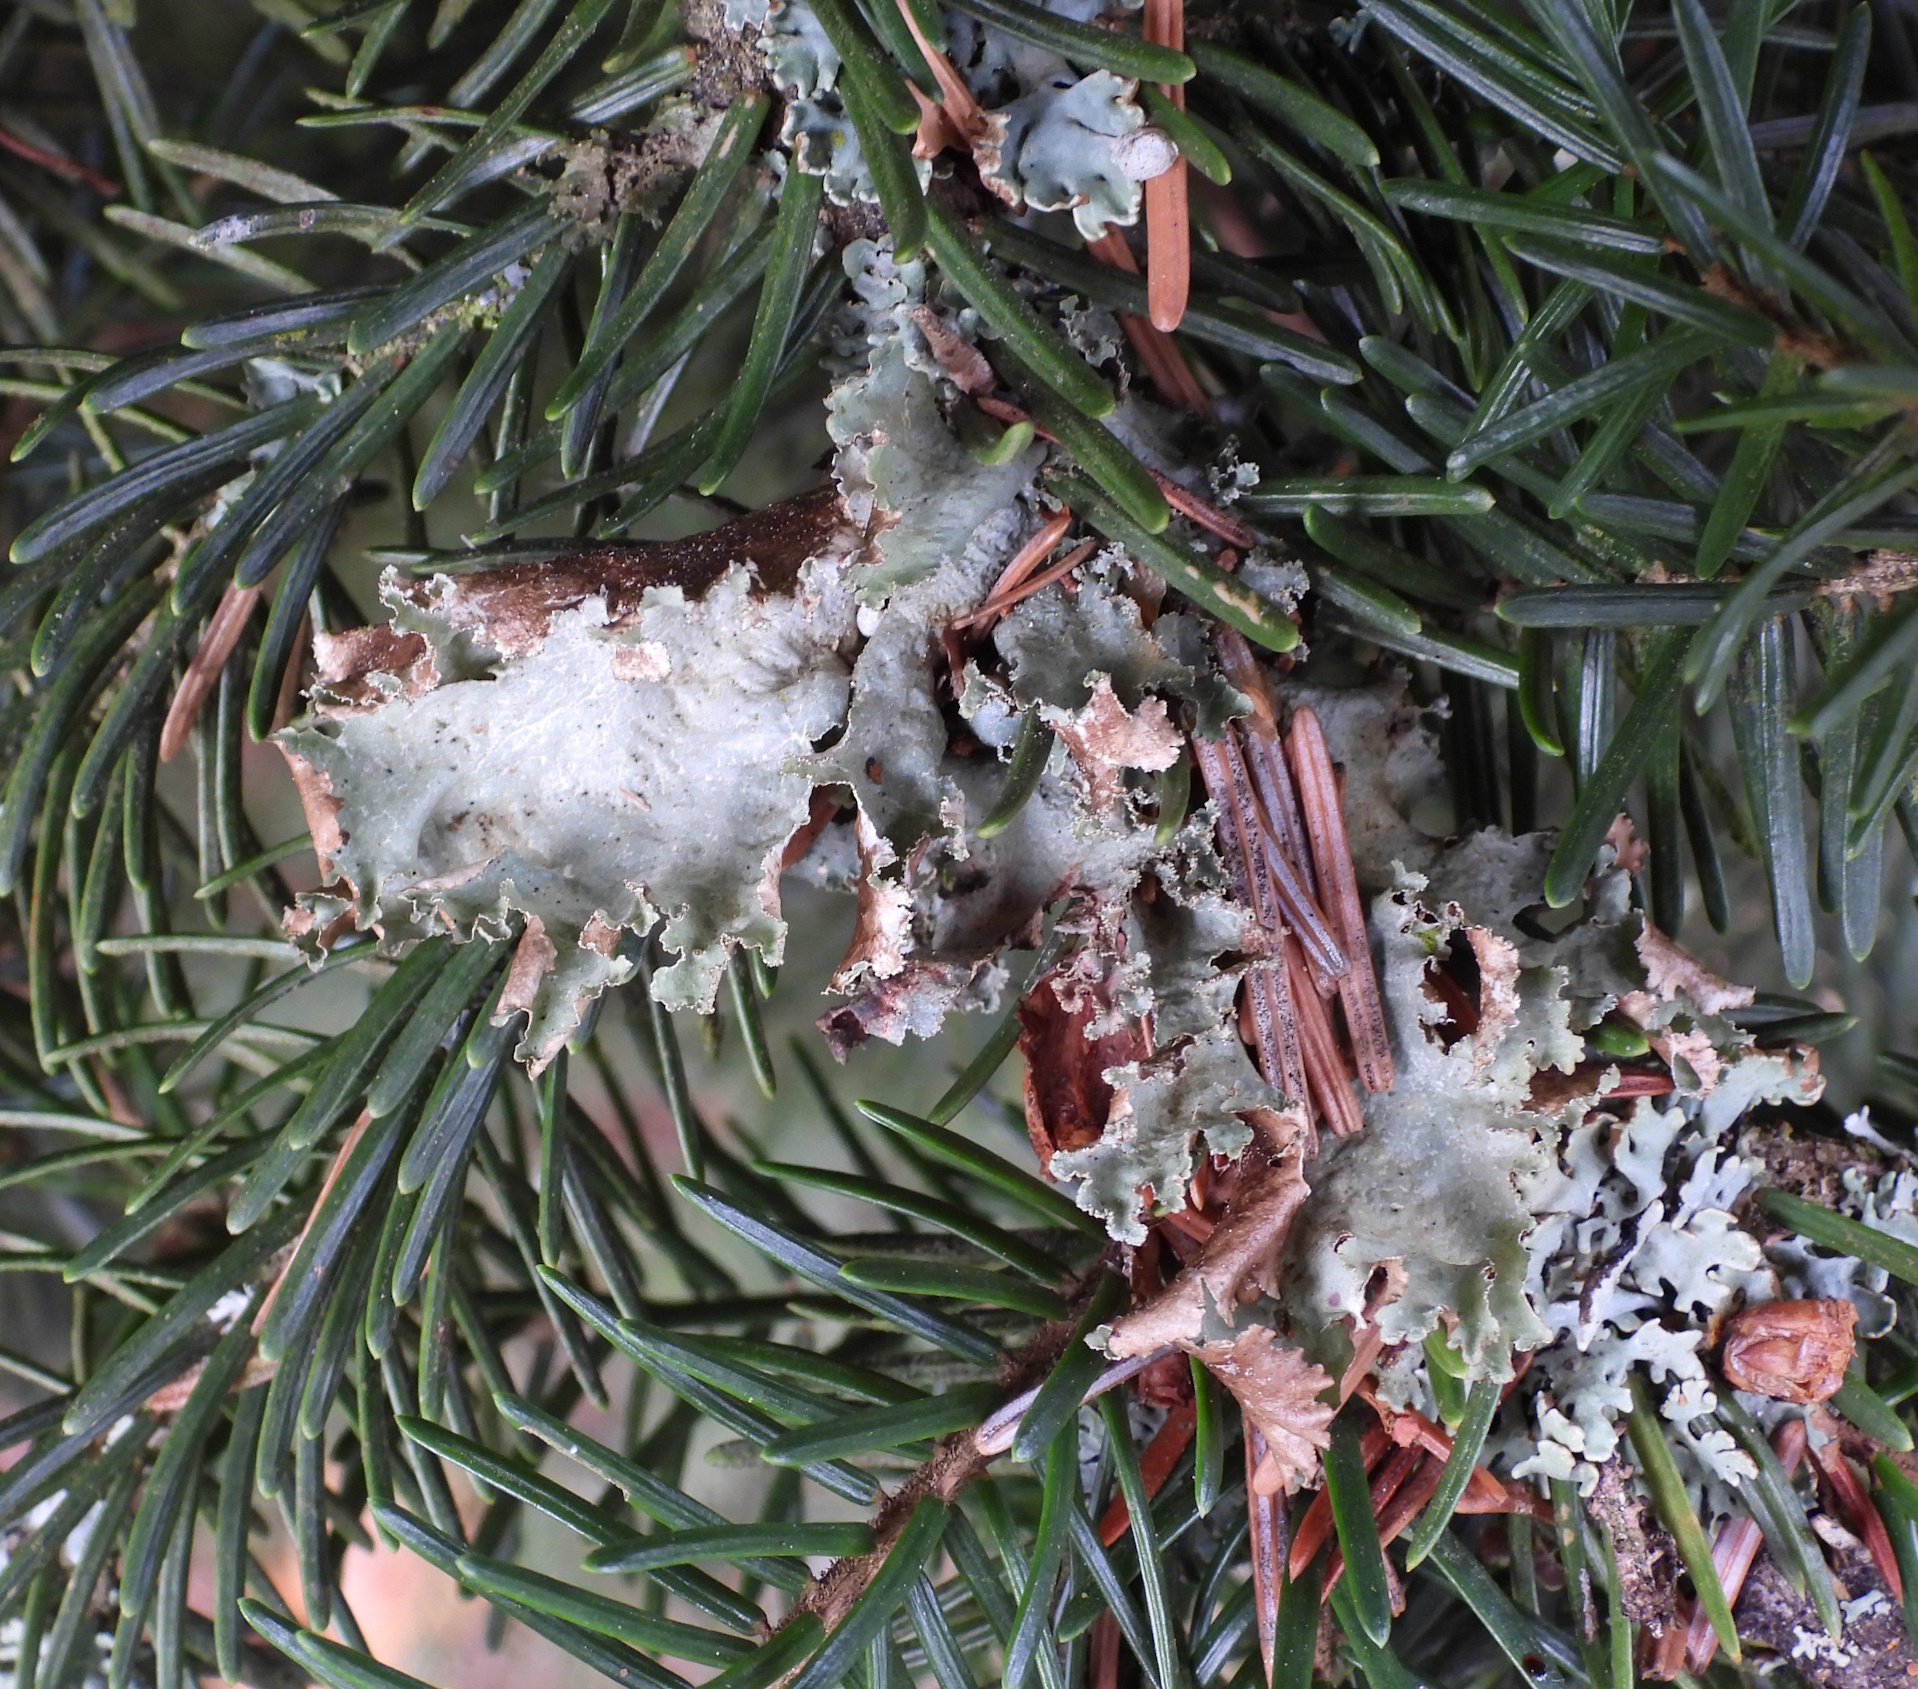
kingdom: Fungi
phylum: Ascomycota
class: Lecanoromycetes
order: Lecanorales
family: Parmeliaceae
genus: Platismatia
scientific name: Platismatia glauca
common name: Varied rag lichen
